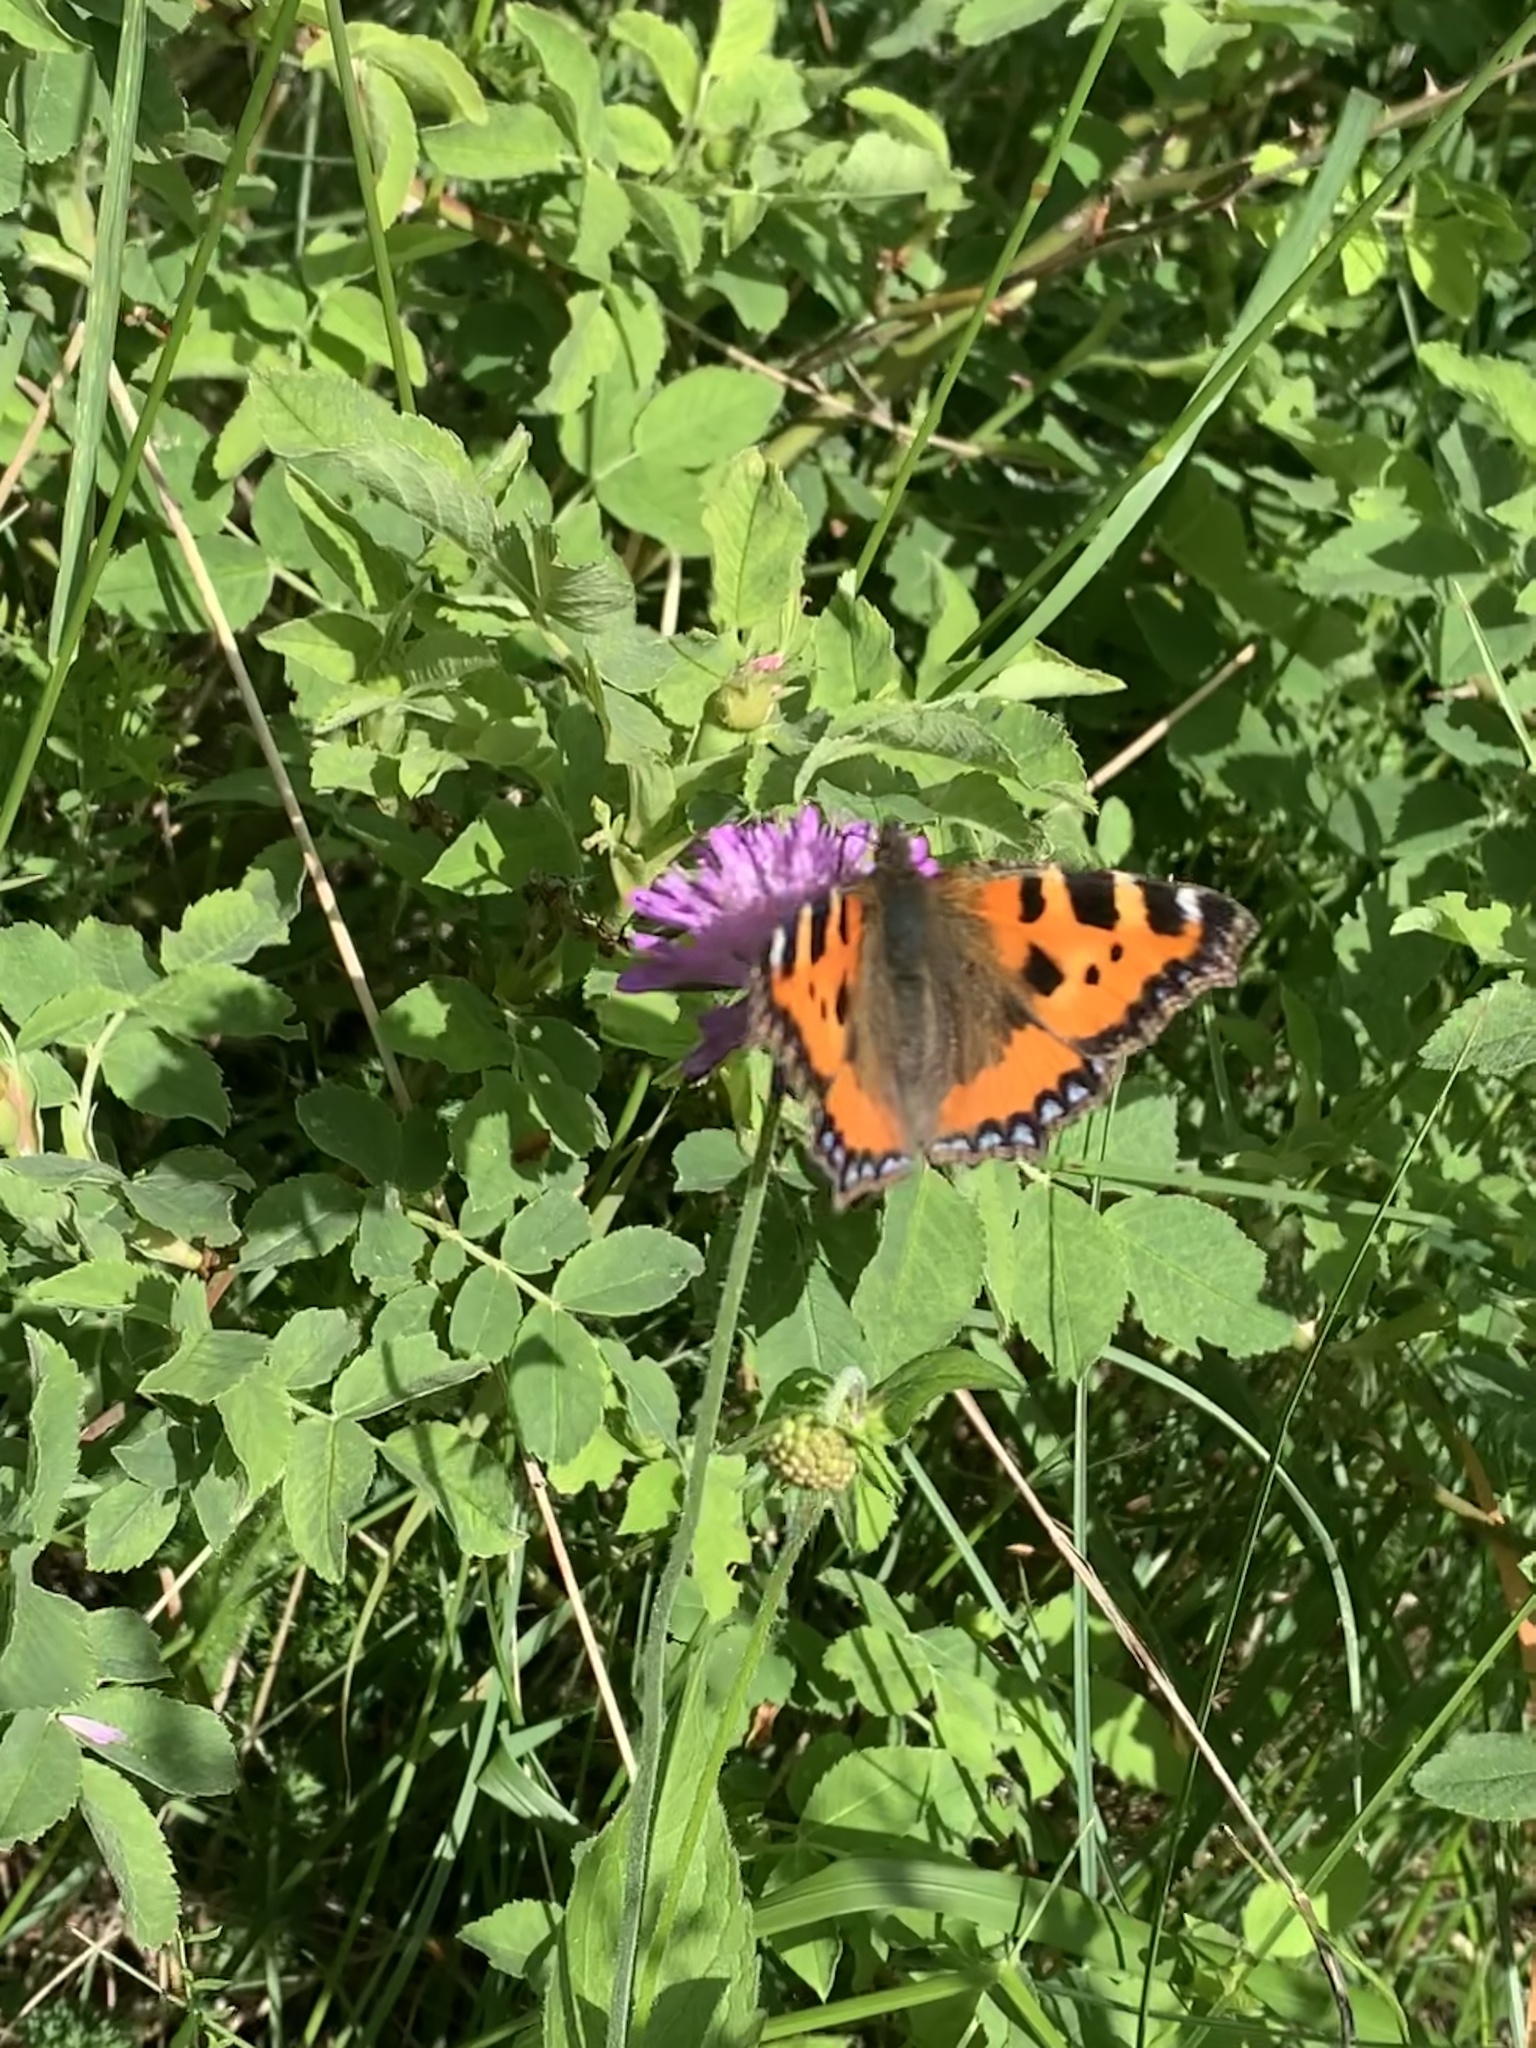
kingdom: Animalia
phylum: Arthropoda
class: Insecta
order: Lepidoptera
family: Nymphalidae
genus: Aglais
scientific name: Aglais urticae
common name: Small tortoiseshell
